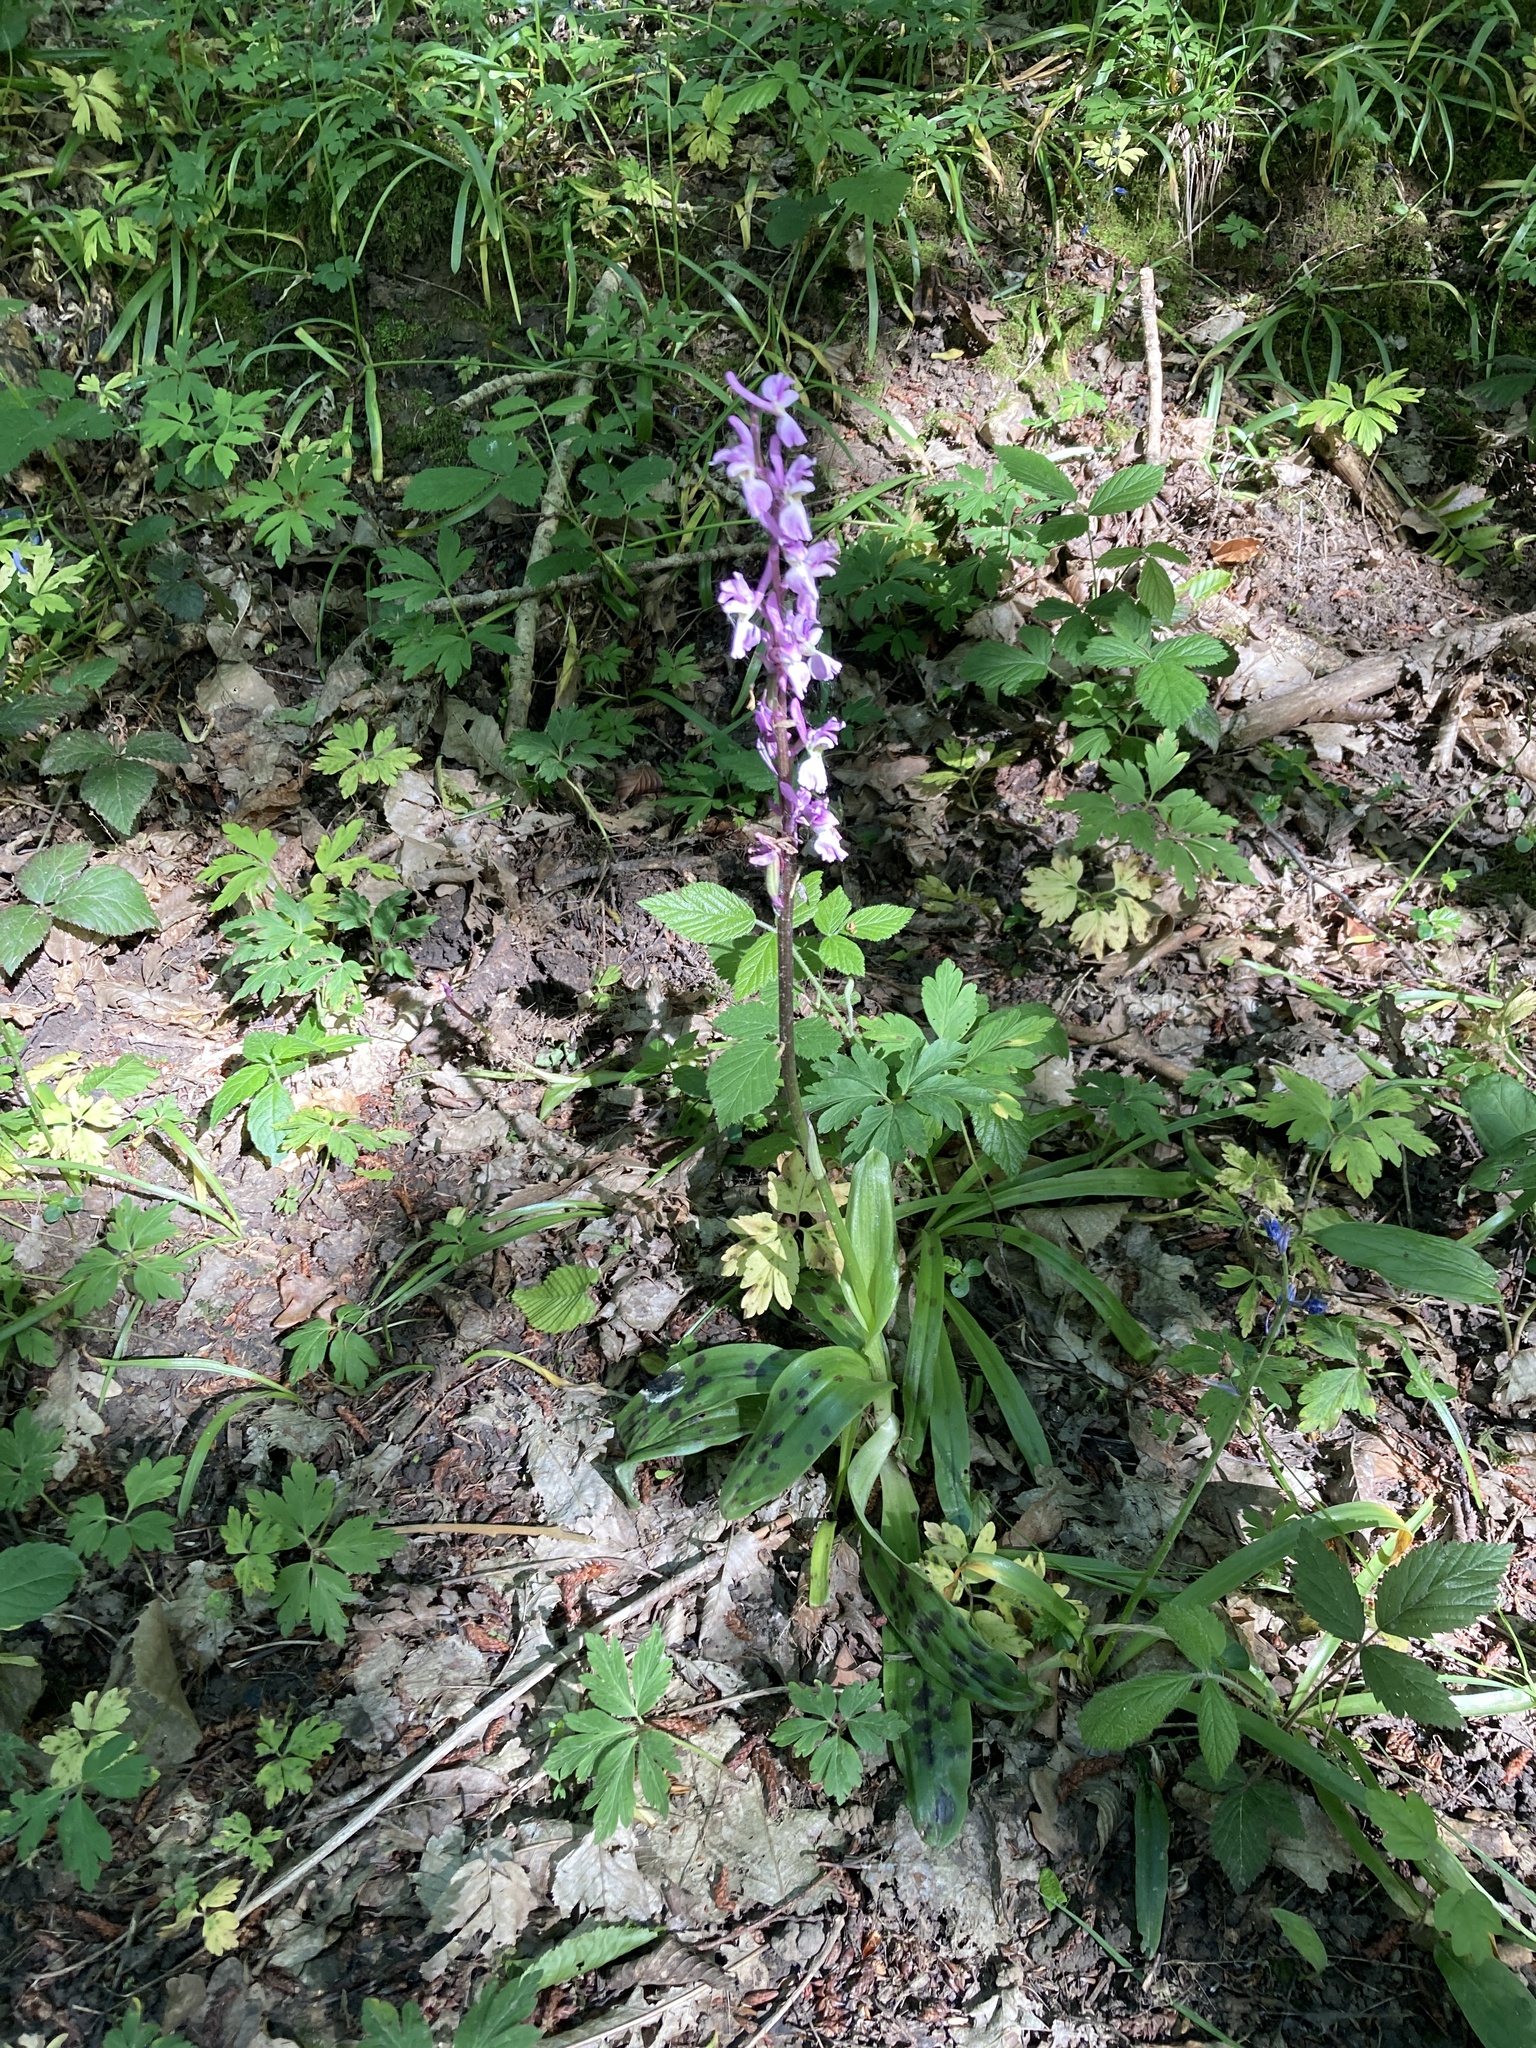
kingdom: Plantae
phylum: Tracheophyta
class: Liliopsida
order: Asparagales
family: Orchidaceae
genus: Orchis
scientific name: Orchis mascula
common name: Early-purple orchid
